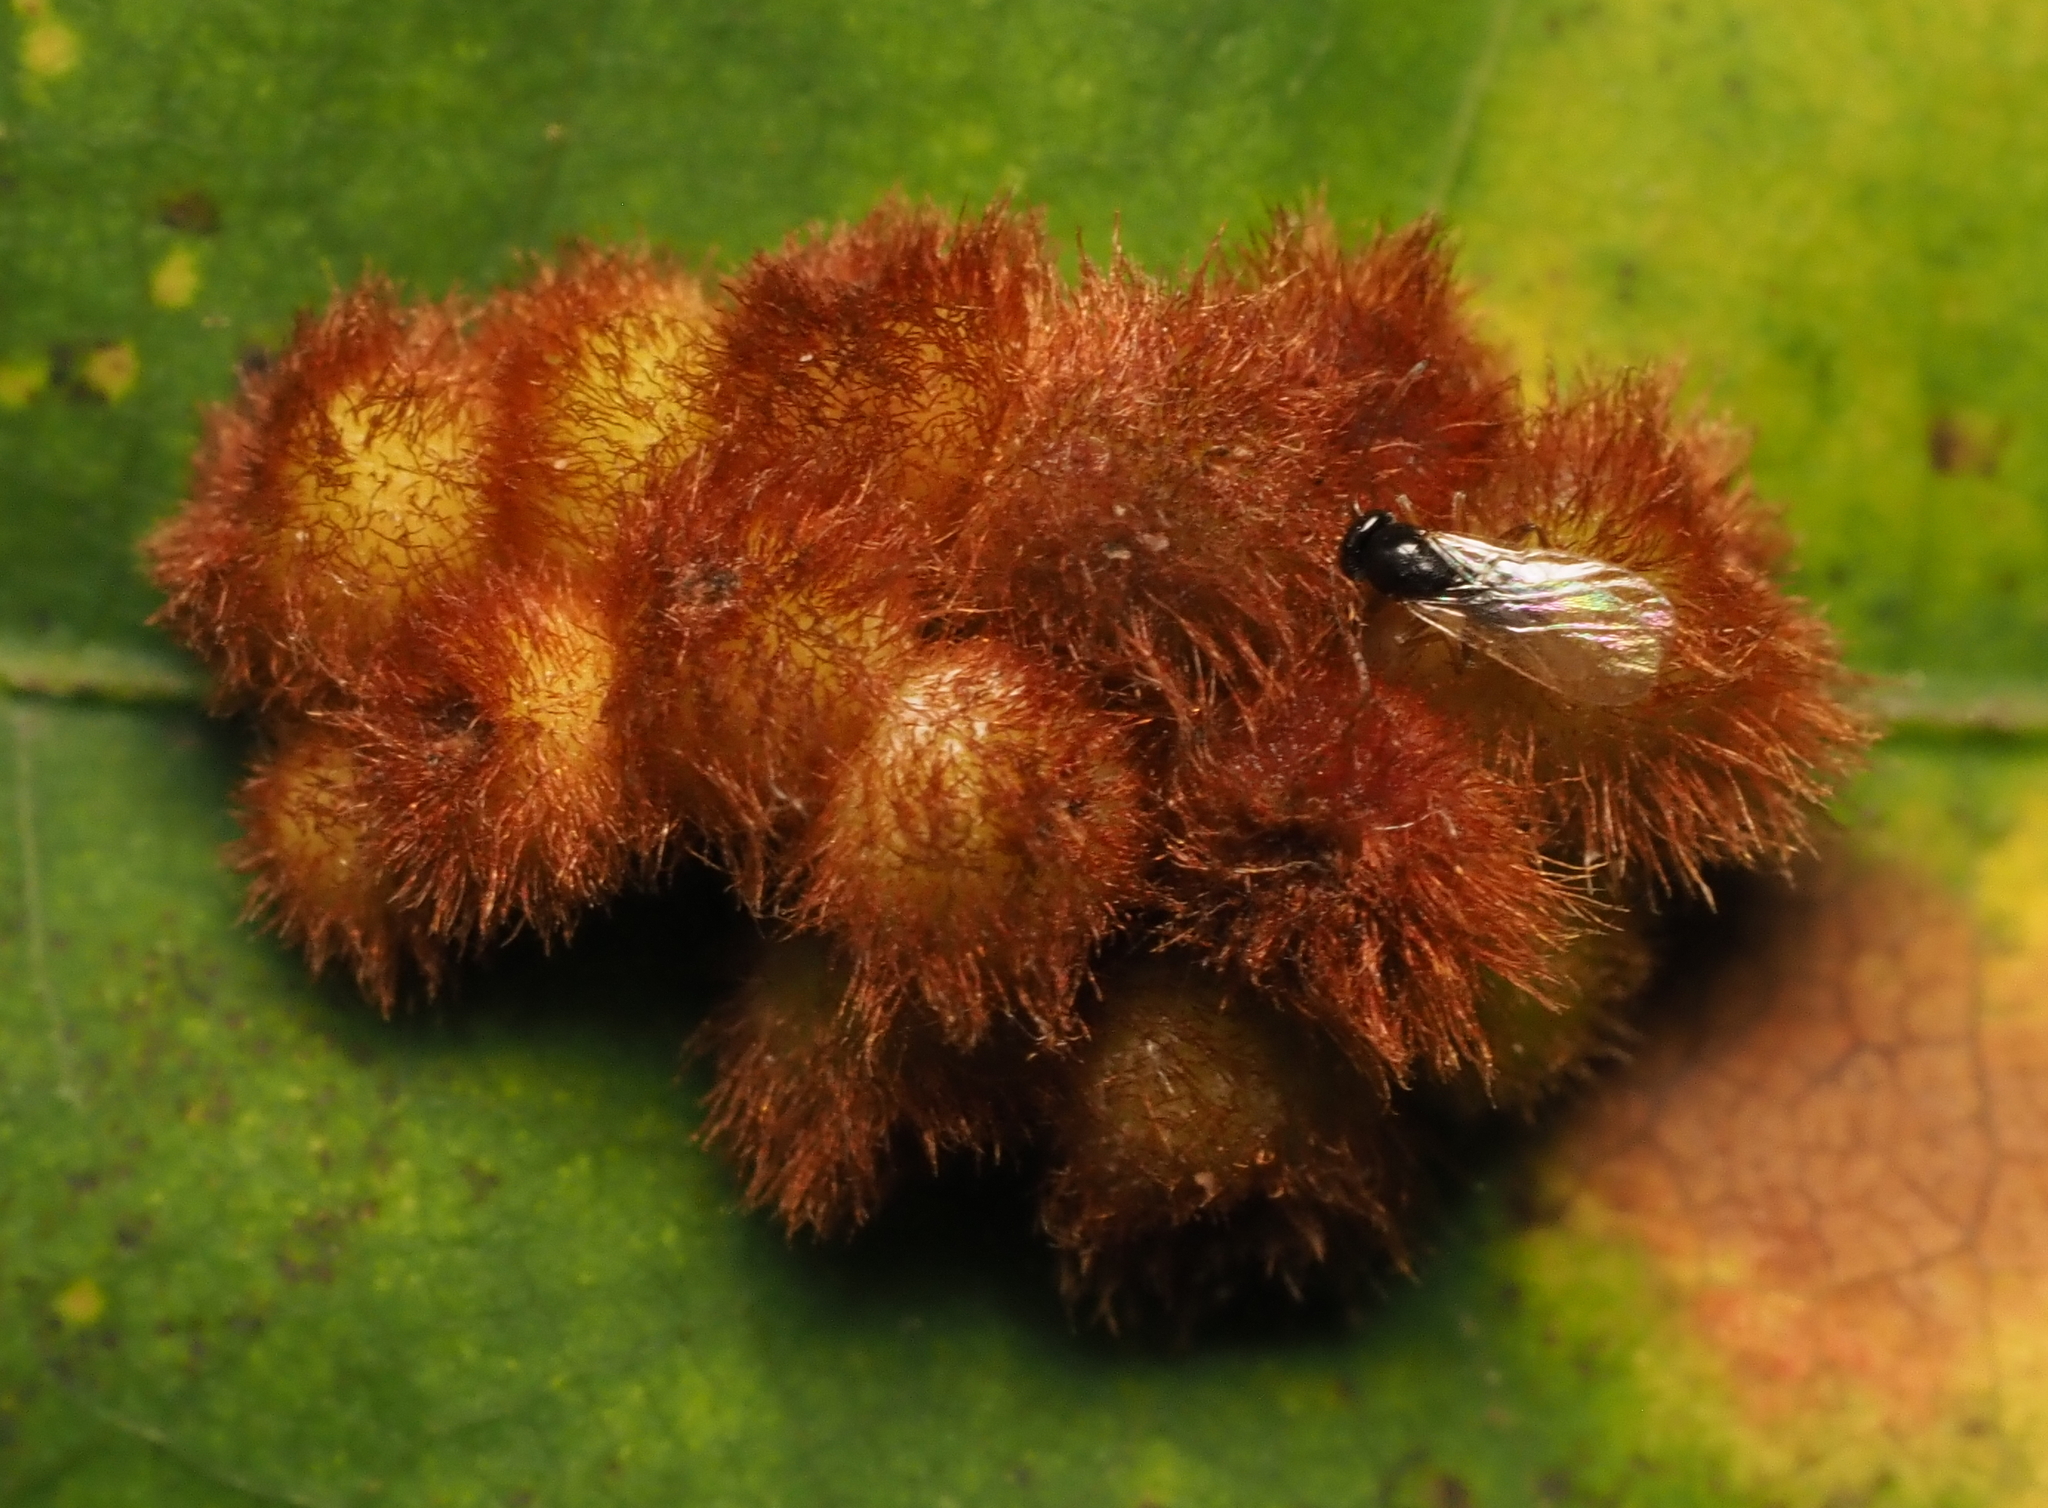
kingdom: Animalia
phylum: Arthropoda
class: Insecta
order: Hymenoptera
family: Cynipidae
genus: Callirhytis
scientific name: Callirhytis
